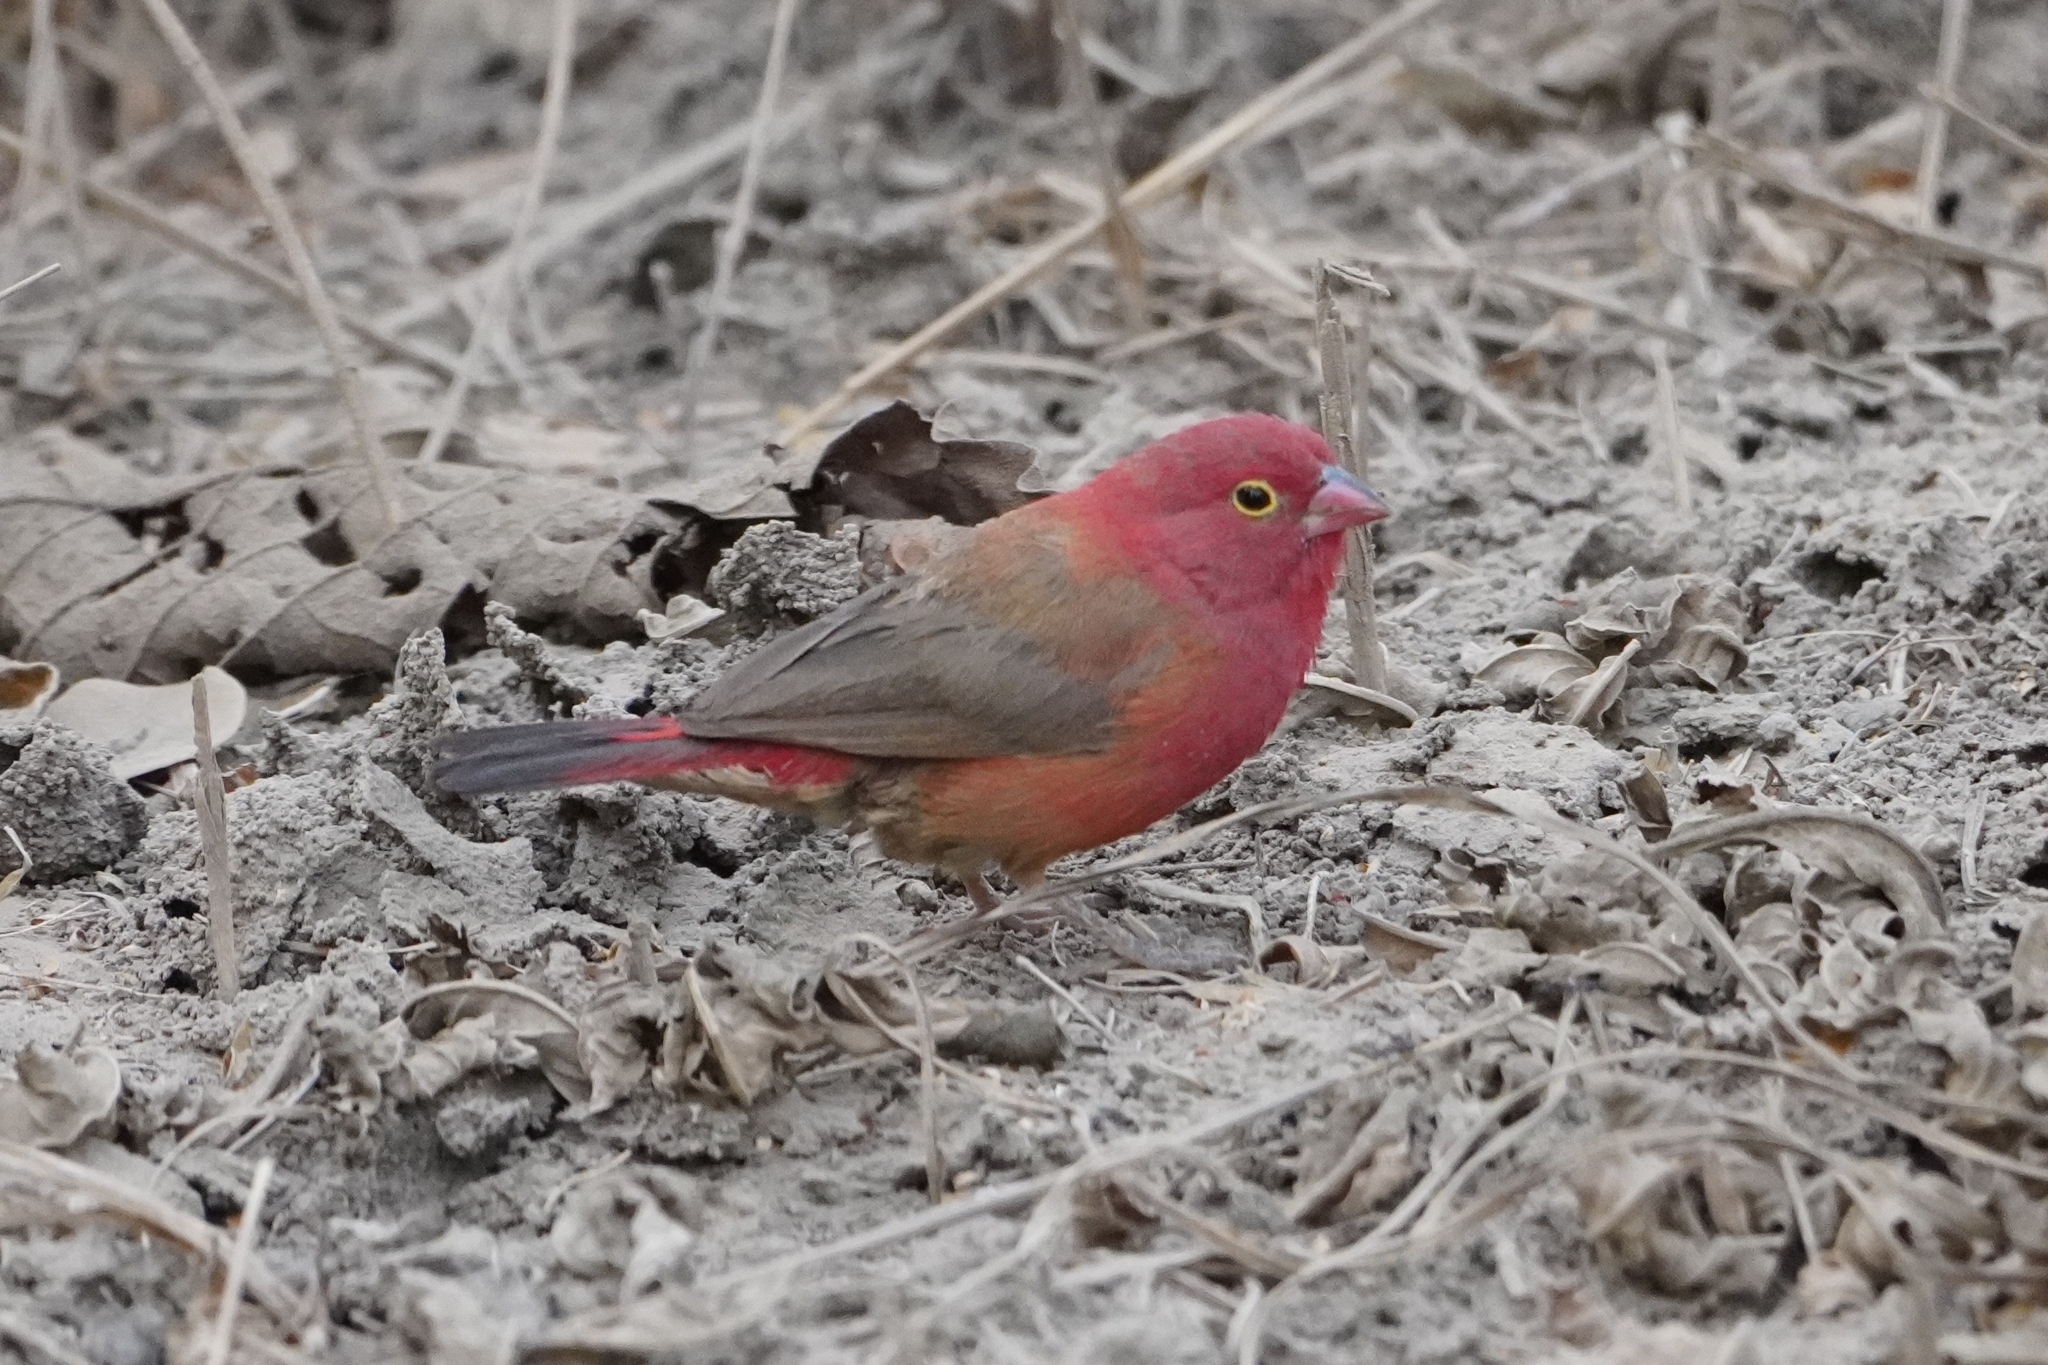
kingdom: Animalia
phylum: Chordata
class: Aves
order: Passeriformes
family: Estrildidae
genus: Lagonosticta
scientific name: Lagonosticta senegala
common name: Red-billed firefinch
